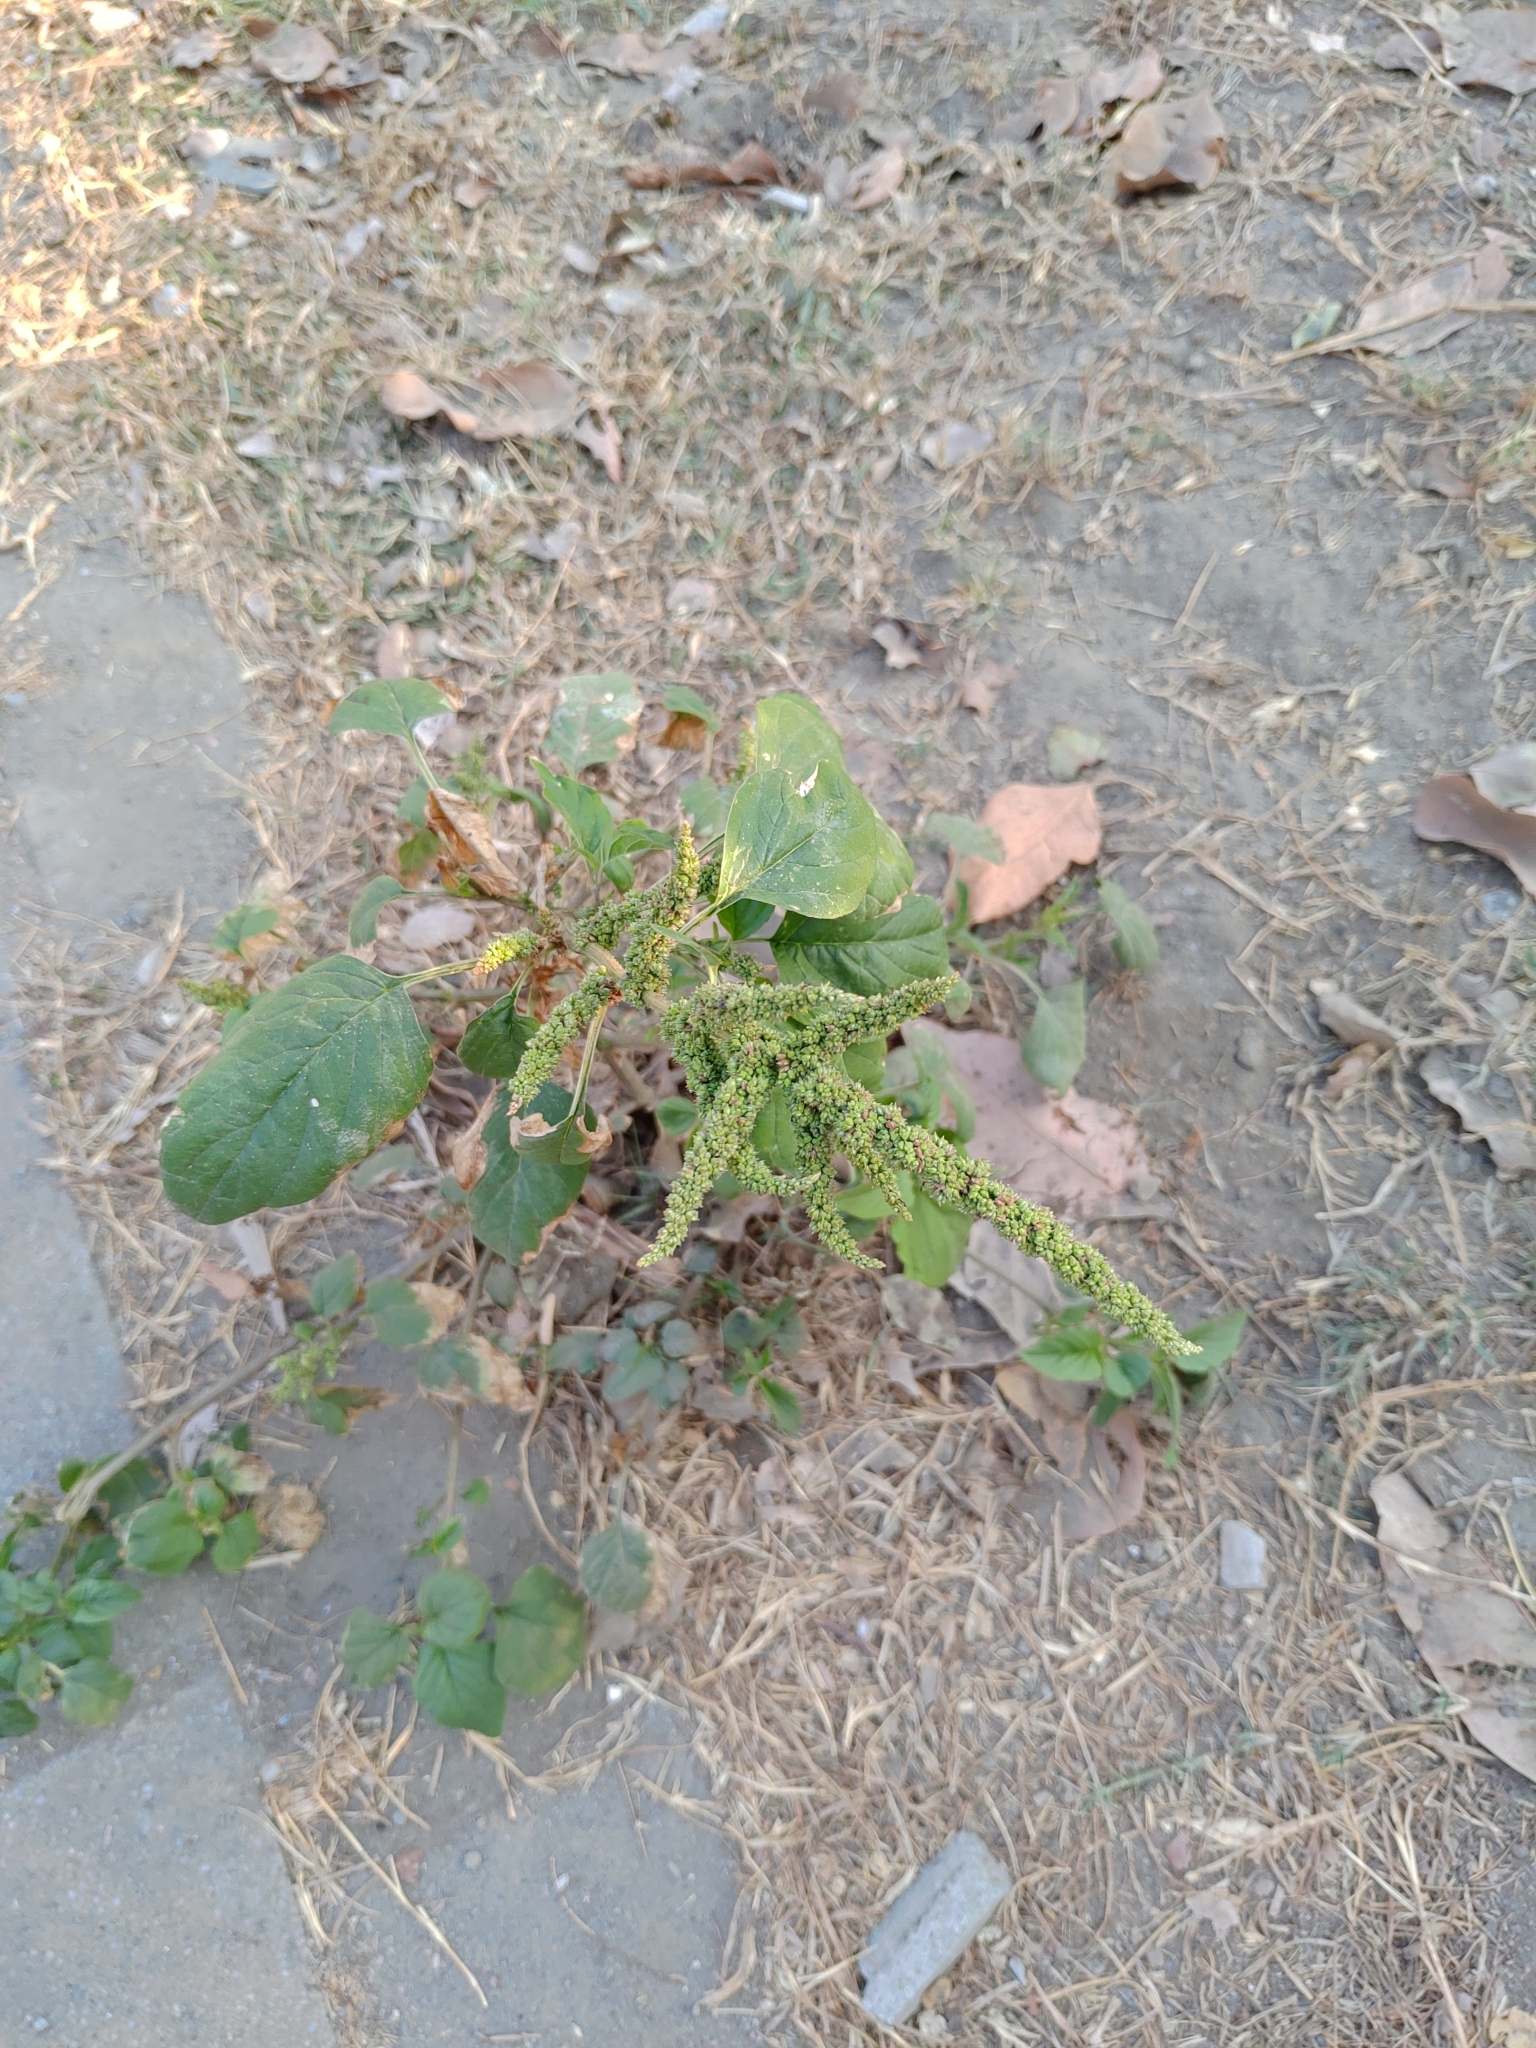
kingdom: Plantae
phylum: Tracheophyta
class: Magnoliopsida
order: Caryophyllales
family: Amaranthaceae
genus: Amaranthus
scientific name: Amaranthus viridis
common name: Slender amaranth
